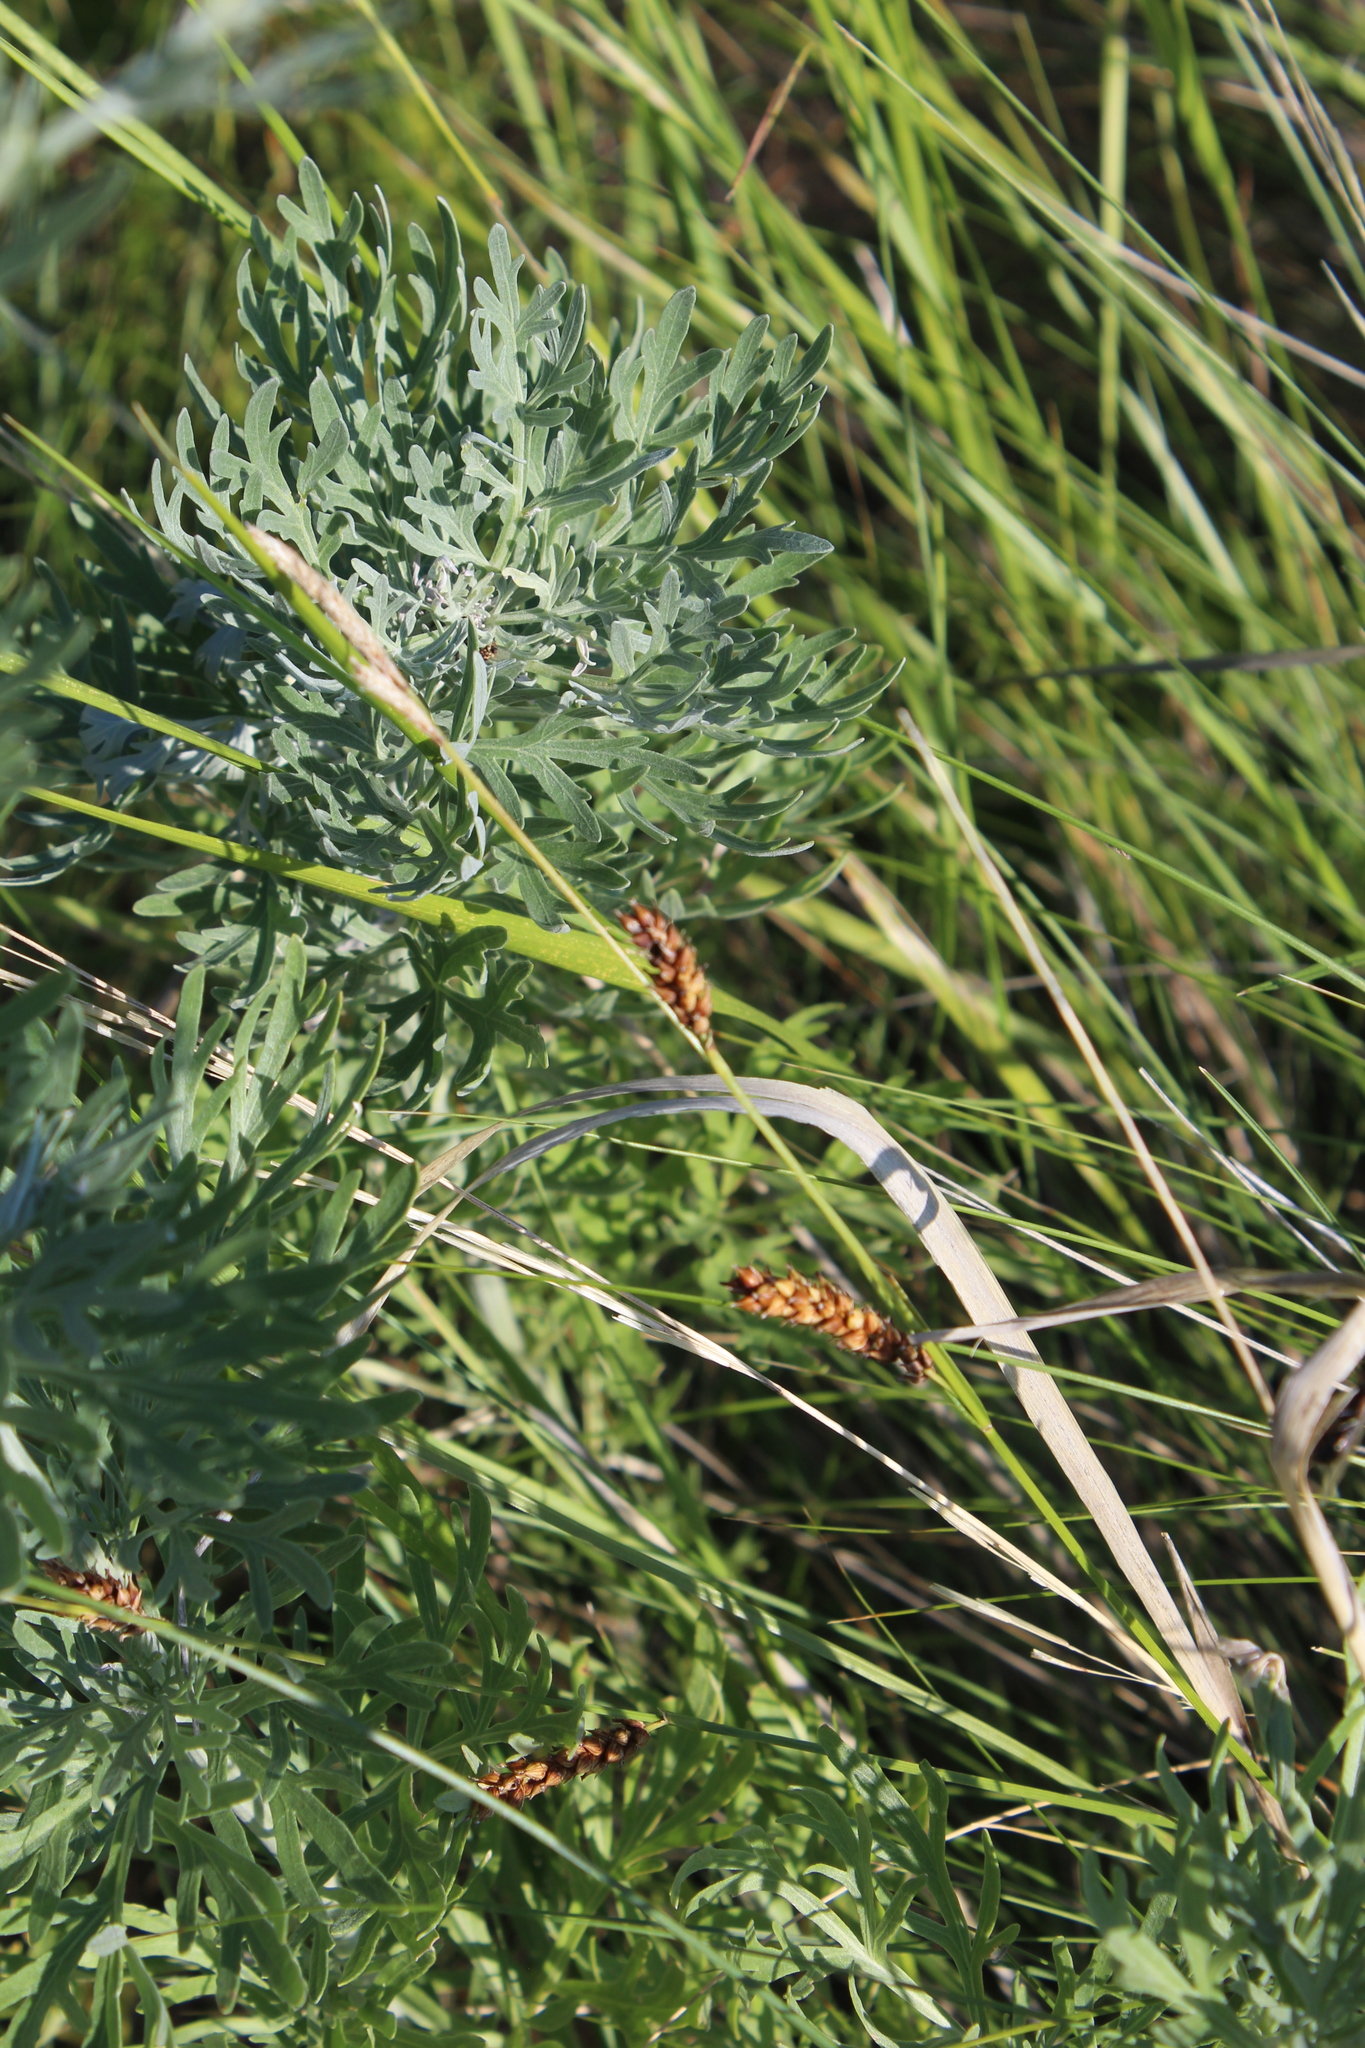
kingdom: Plantae
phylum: Tracheophyta
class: Liliopsida
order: Poales
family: Cyperaceae
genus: Carex
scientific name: Carex melanostachya
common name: Black-spiked sedge
